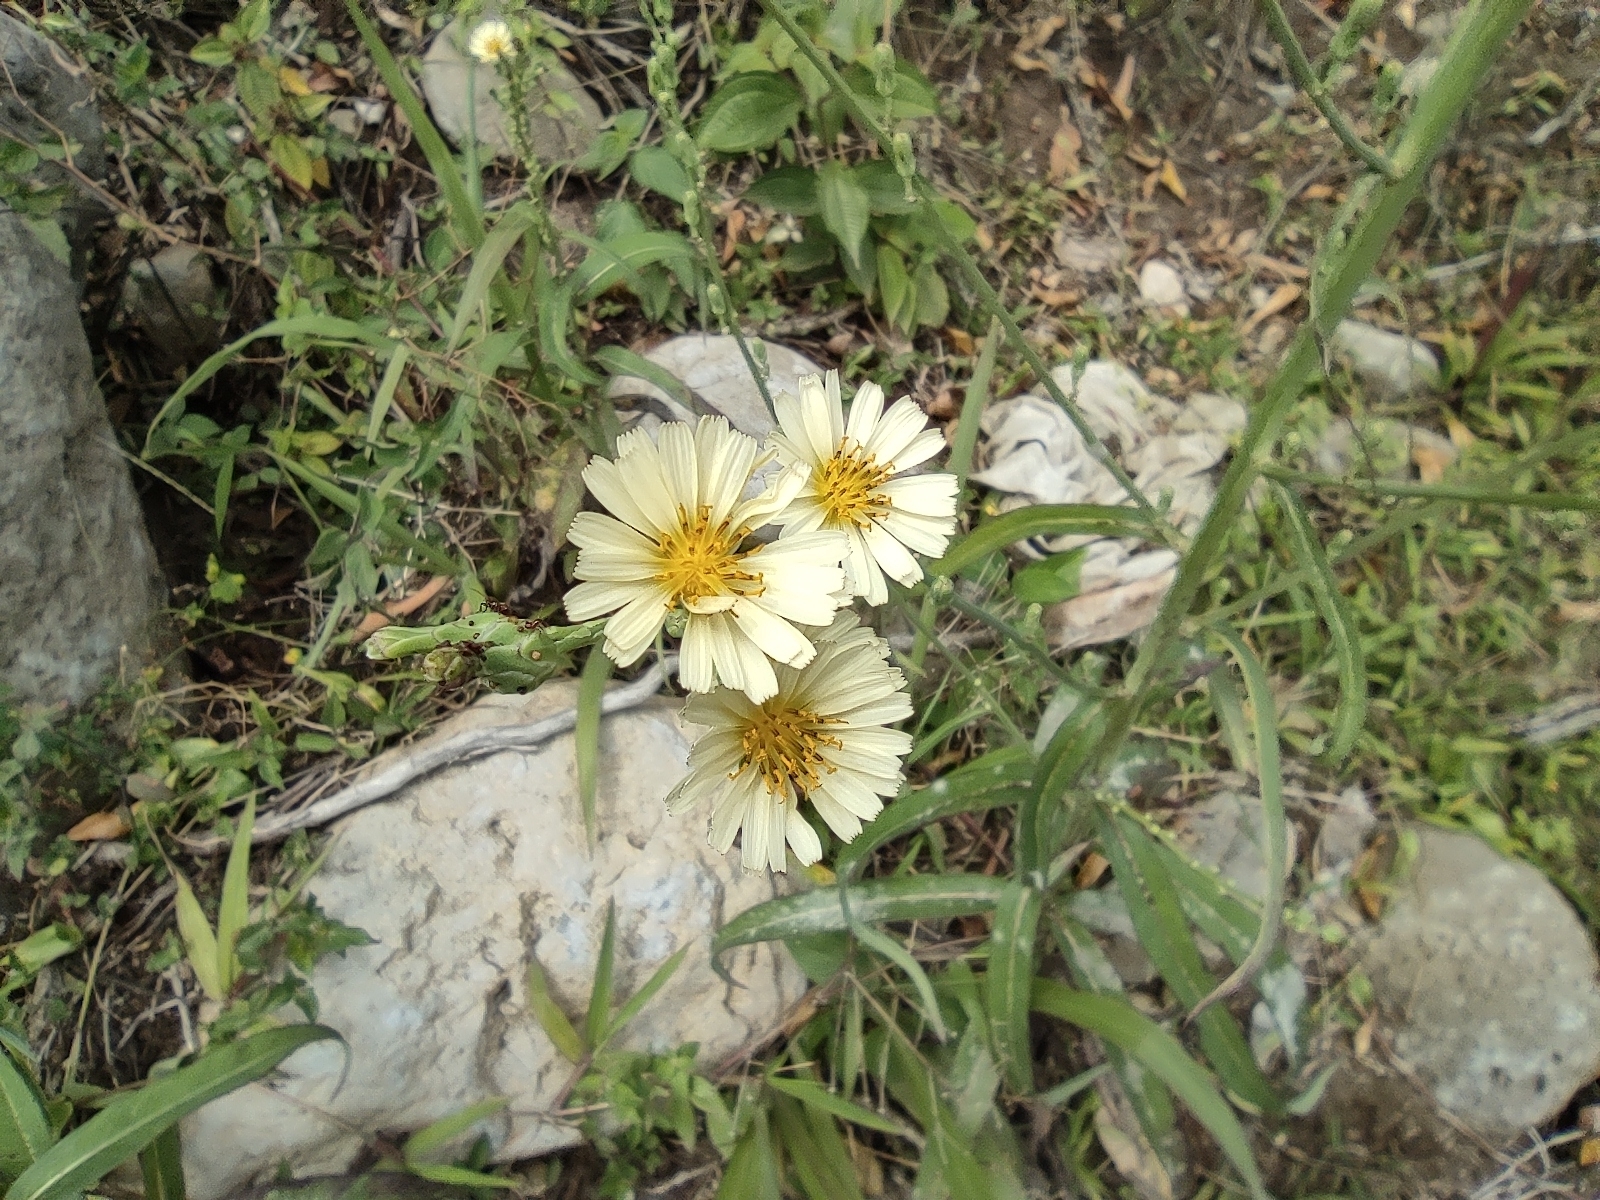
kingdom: Plantae
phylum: Tracheophyta
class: Magnoliopsida
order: Asterales
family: Asteraceae
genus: Lactuca
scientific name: Lactuca indica
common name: Wild lettuce
